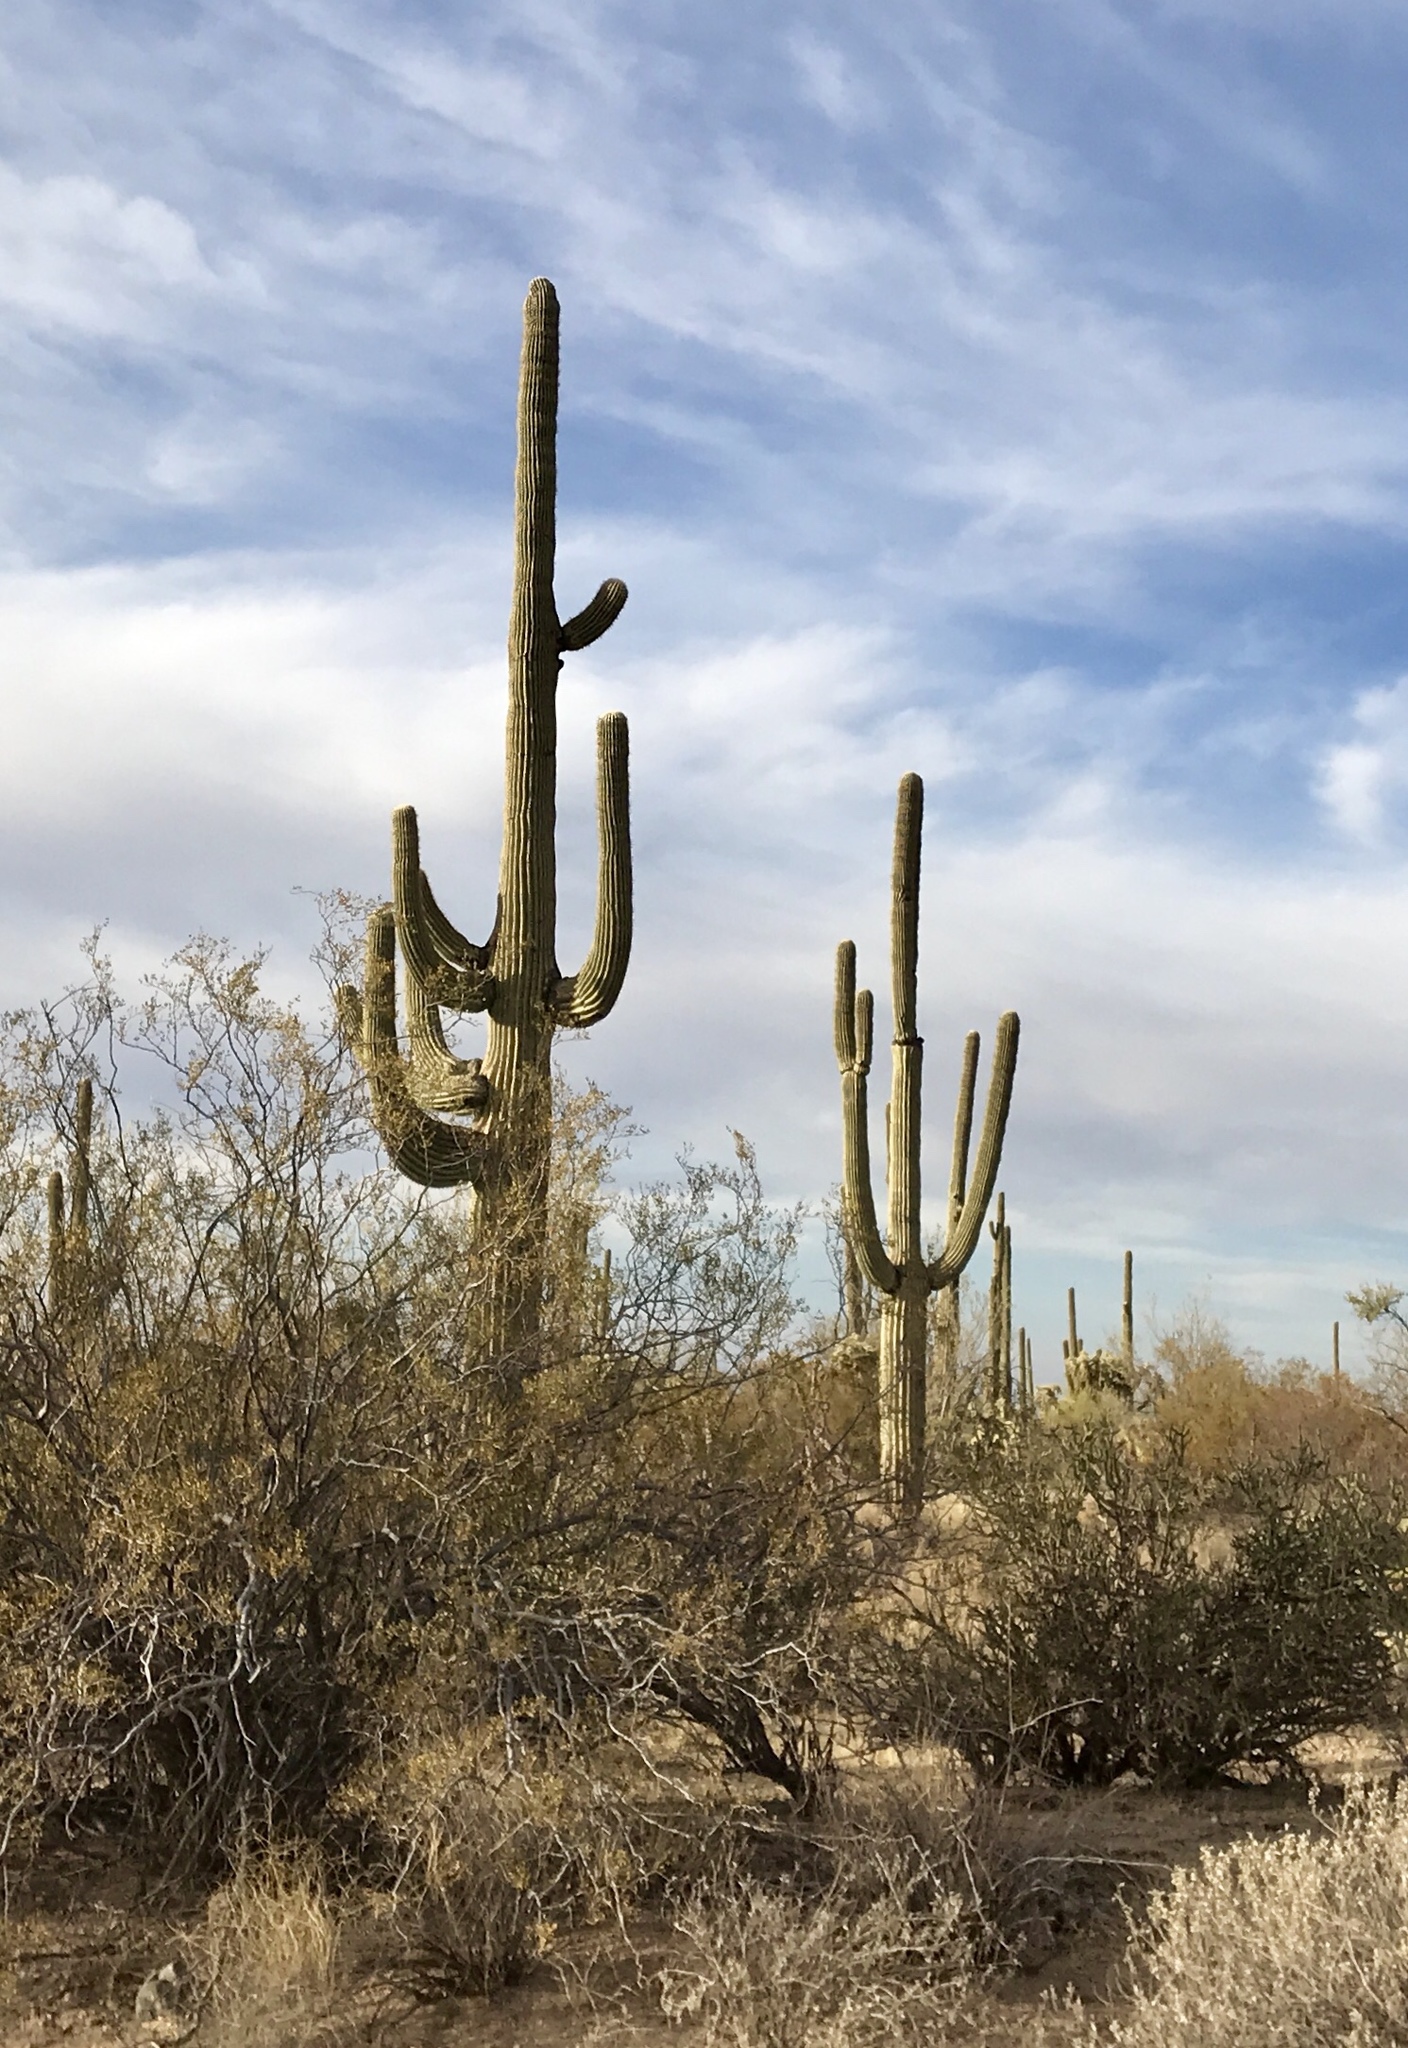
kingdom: Plantae
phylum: Tracheophyta
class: Magnoliopsida
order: Caryophyllales
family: Cactaceae
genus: Carnegiea
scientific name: Carnegiea gigantea
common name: Saguaro
